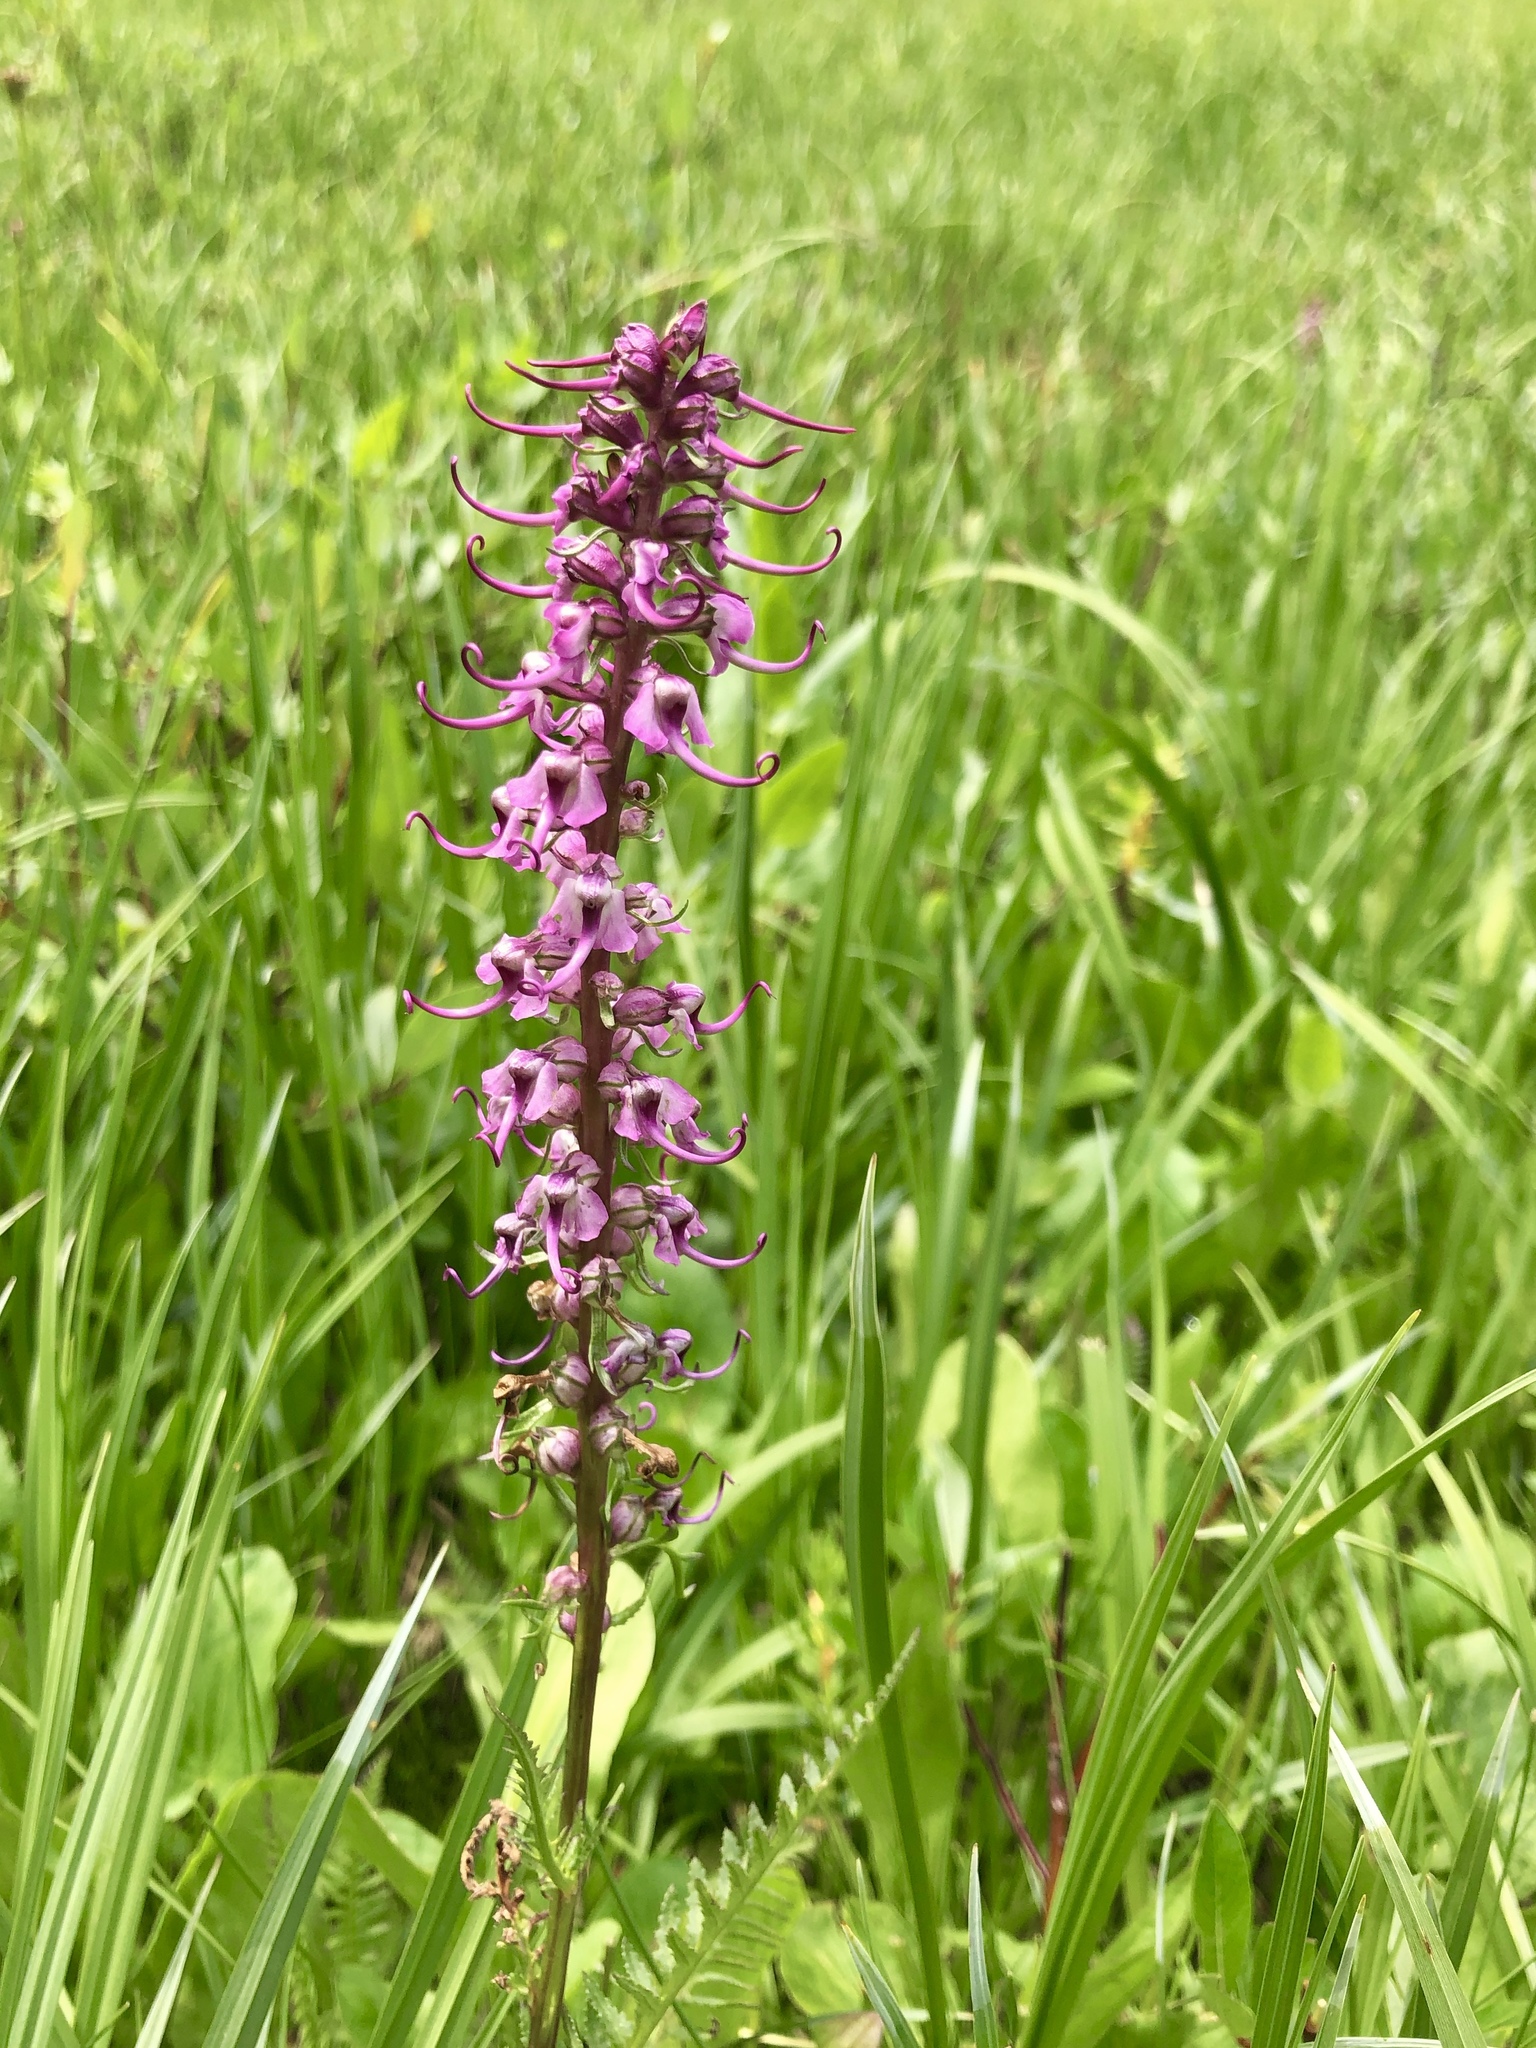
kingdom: Plantae
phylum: Tracheophyta
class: Magnoliopsida
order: Lamiales
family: Orobanchaceae
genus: Pedicularis
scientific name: Pedicularis groenlandica
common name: Elephant's-head
